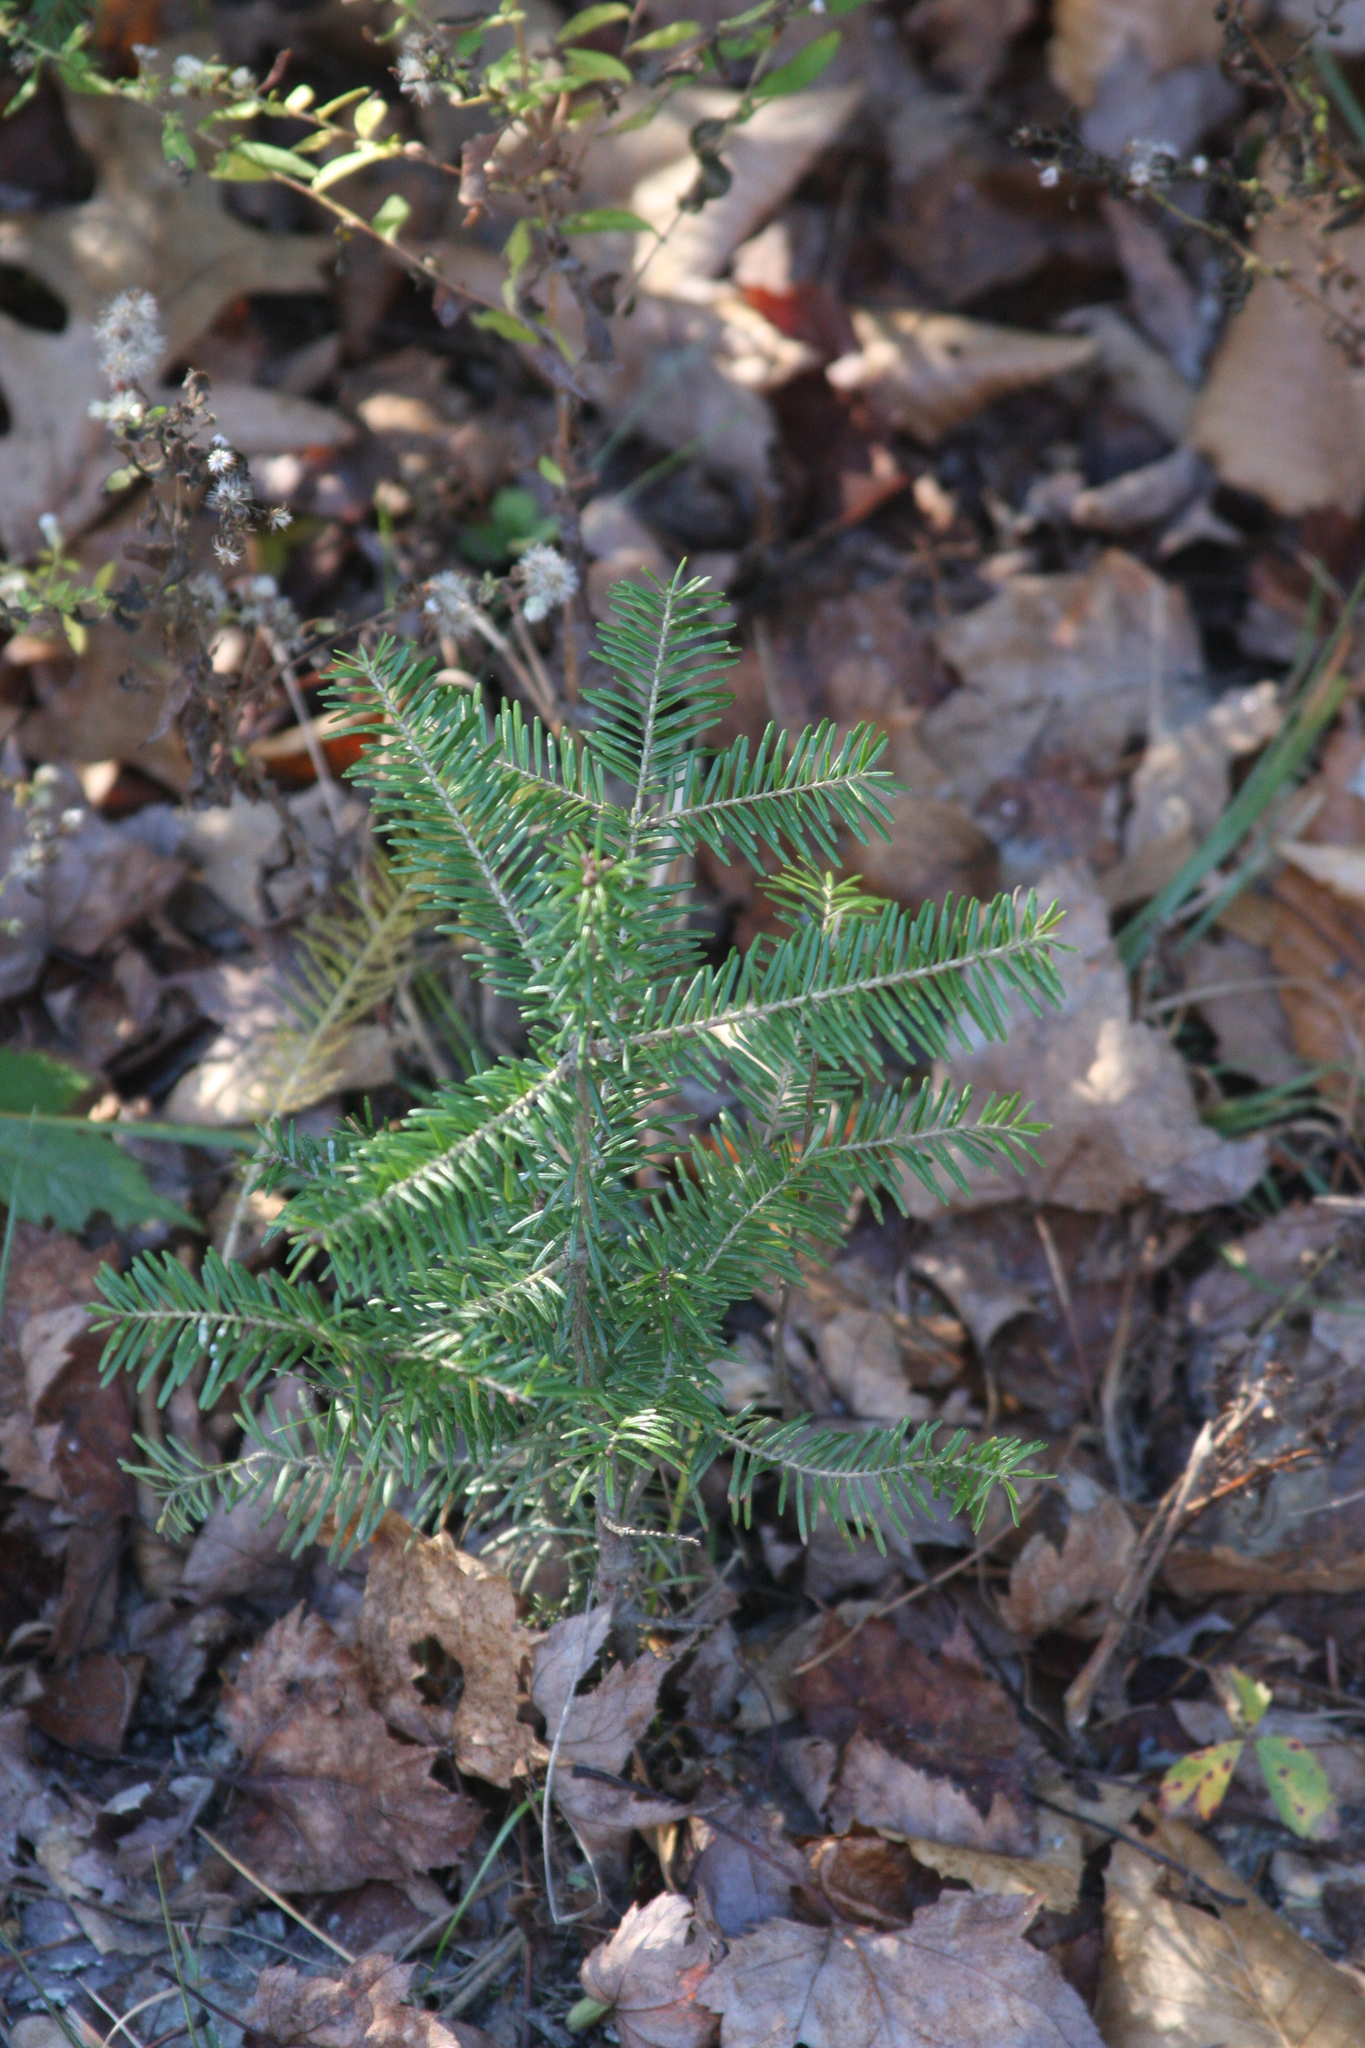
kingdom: Plantae
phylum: Tracheophyta
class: Pinopsida
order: Pinales
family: Pinaceae
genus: Abies
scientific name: Abies balsamea
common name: Balsam fir
